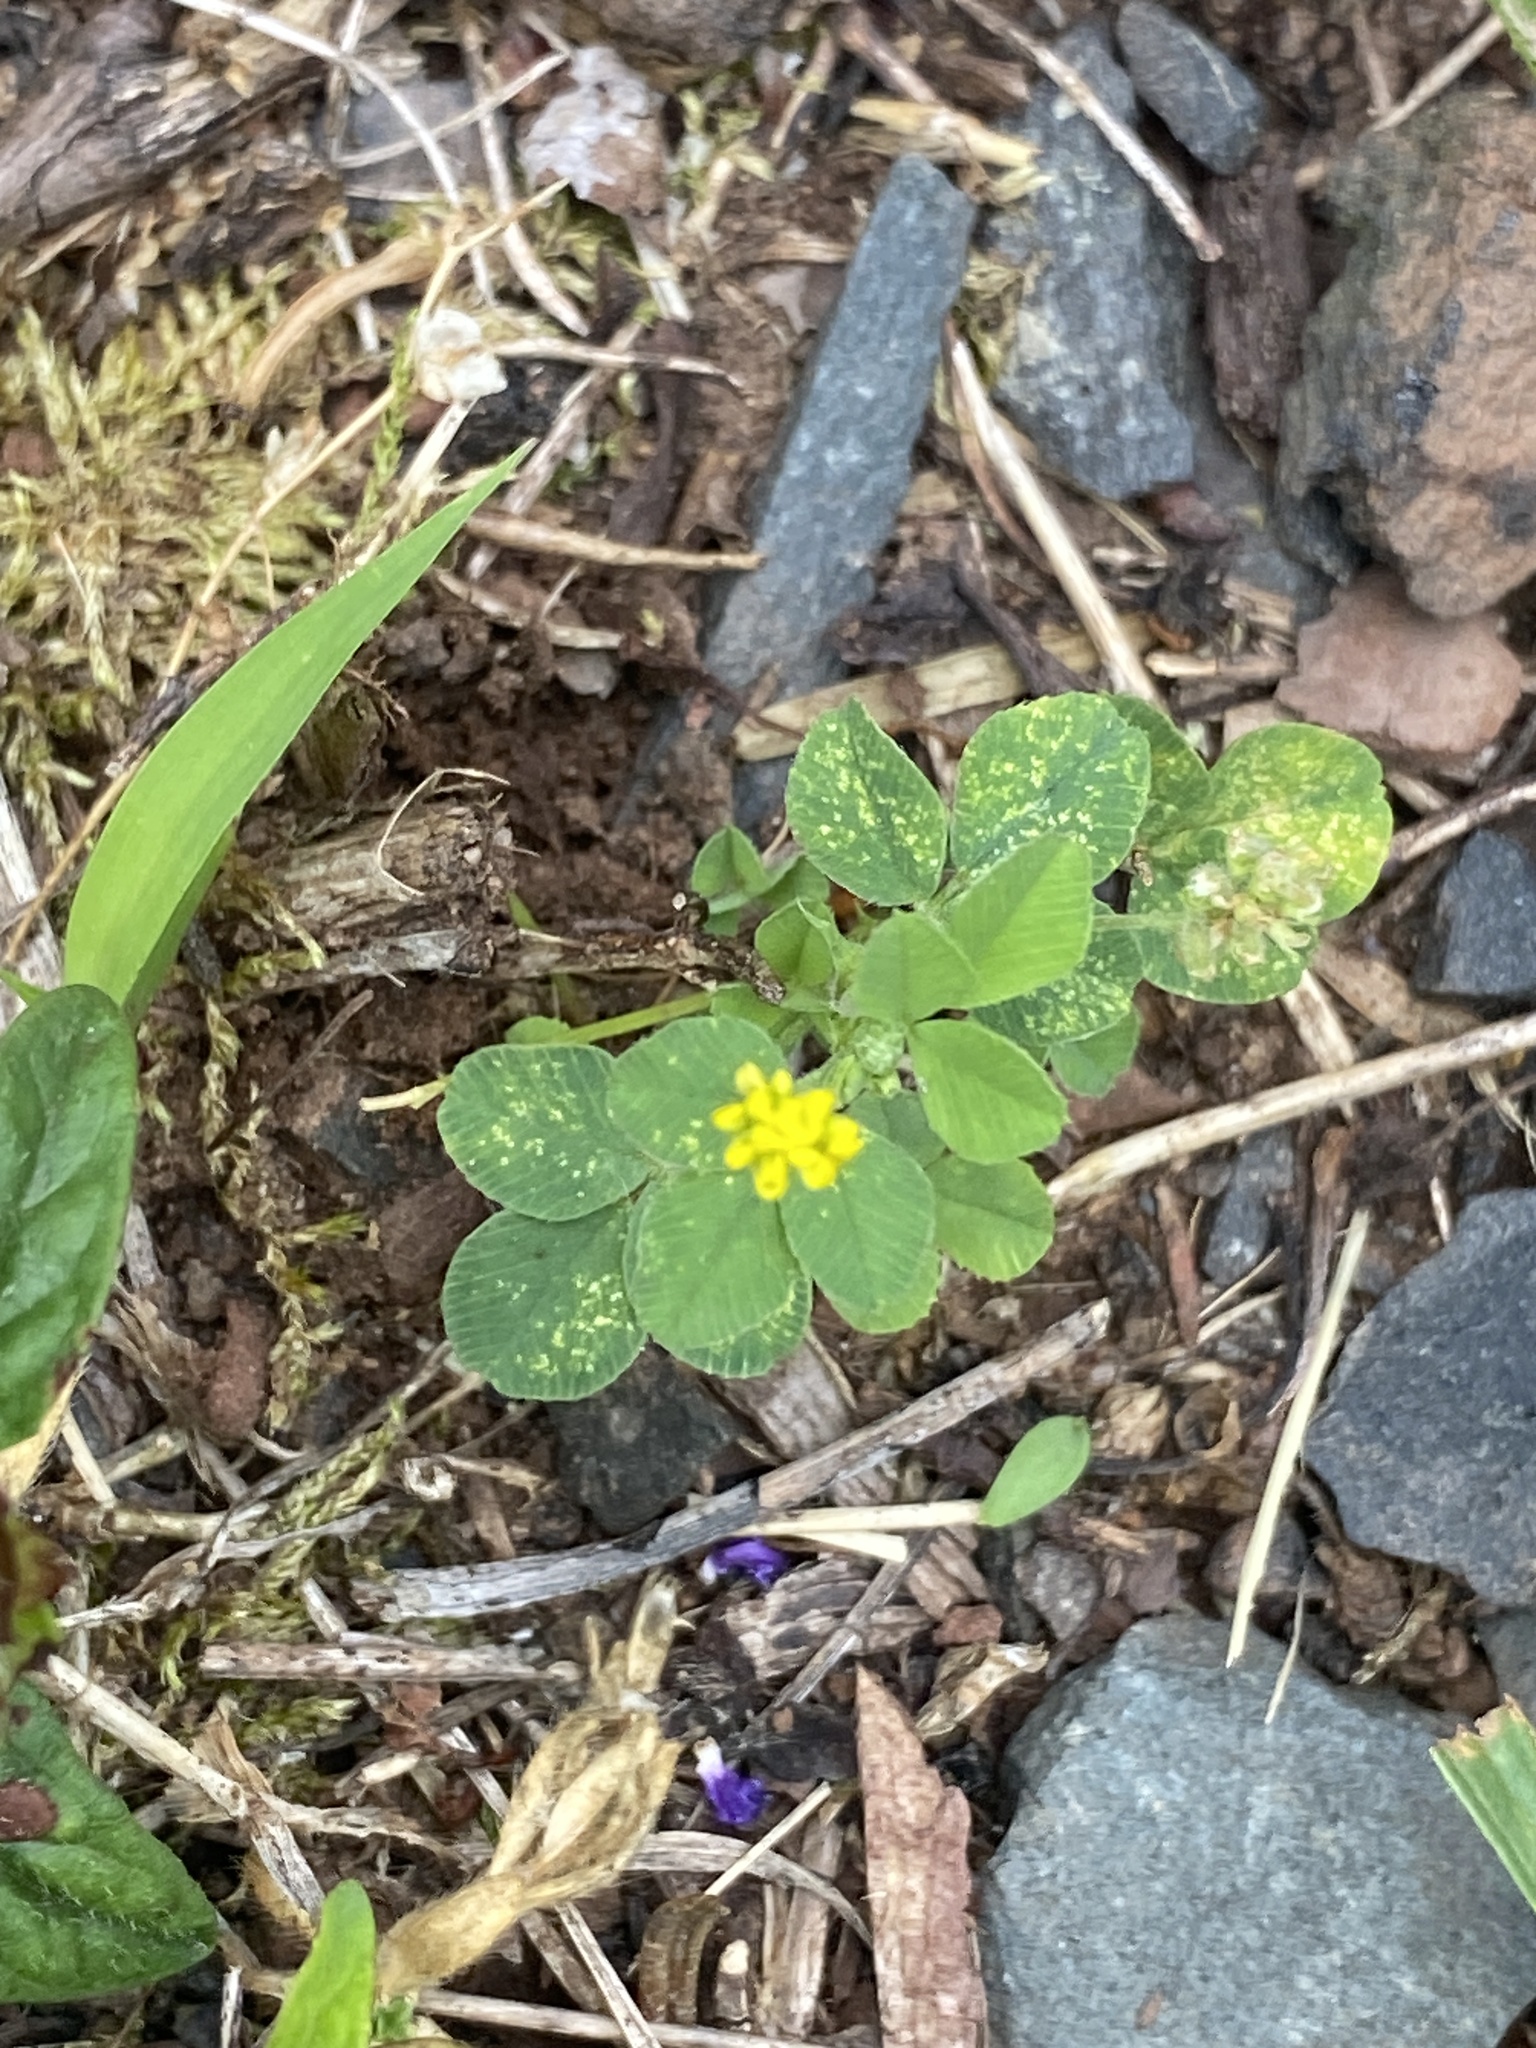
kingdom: Plantae
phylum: Tracheophyta
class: Magnoliopsida
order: Fabales
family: Fabaceae
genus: Medicago
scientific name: Medicago lupulina
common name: Black medick
